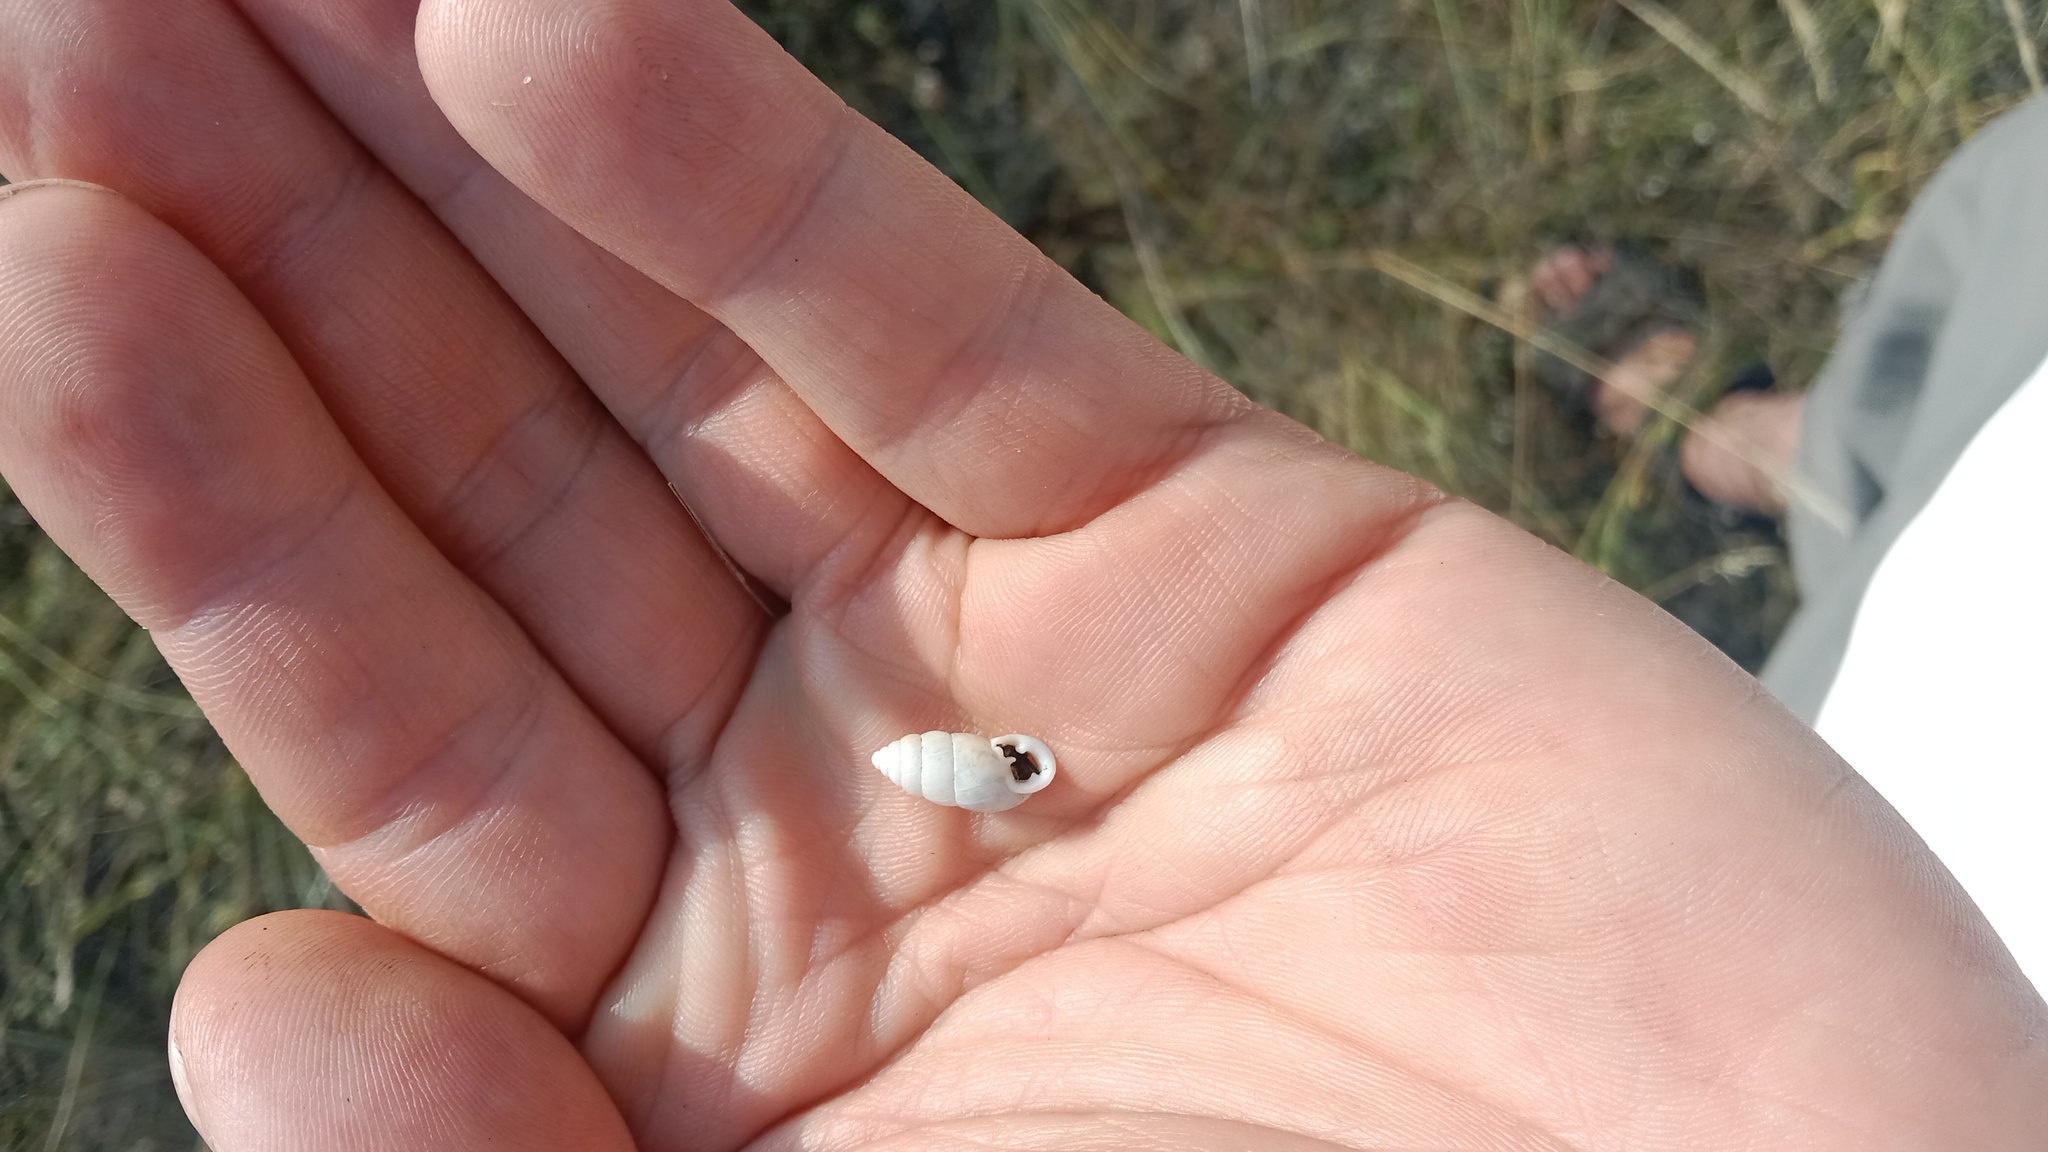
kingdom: Animalia
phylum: Mollusca
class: Gastropoda
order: Stylommatophora
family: Enidae
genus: Chondrula
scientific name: Chondrula tridens
